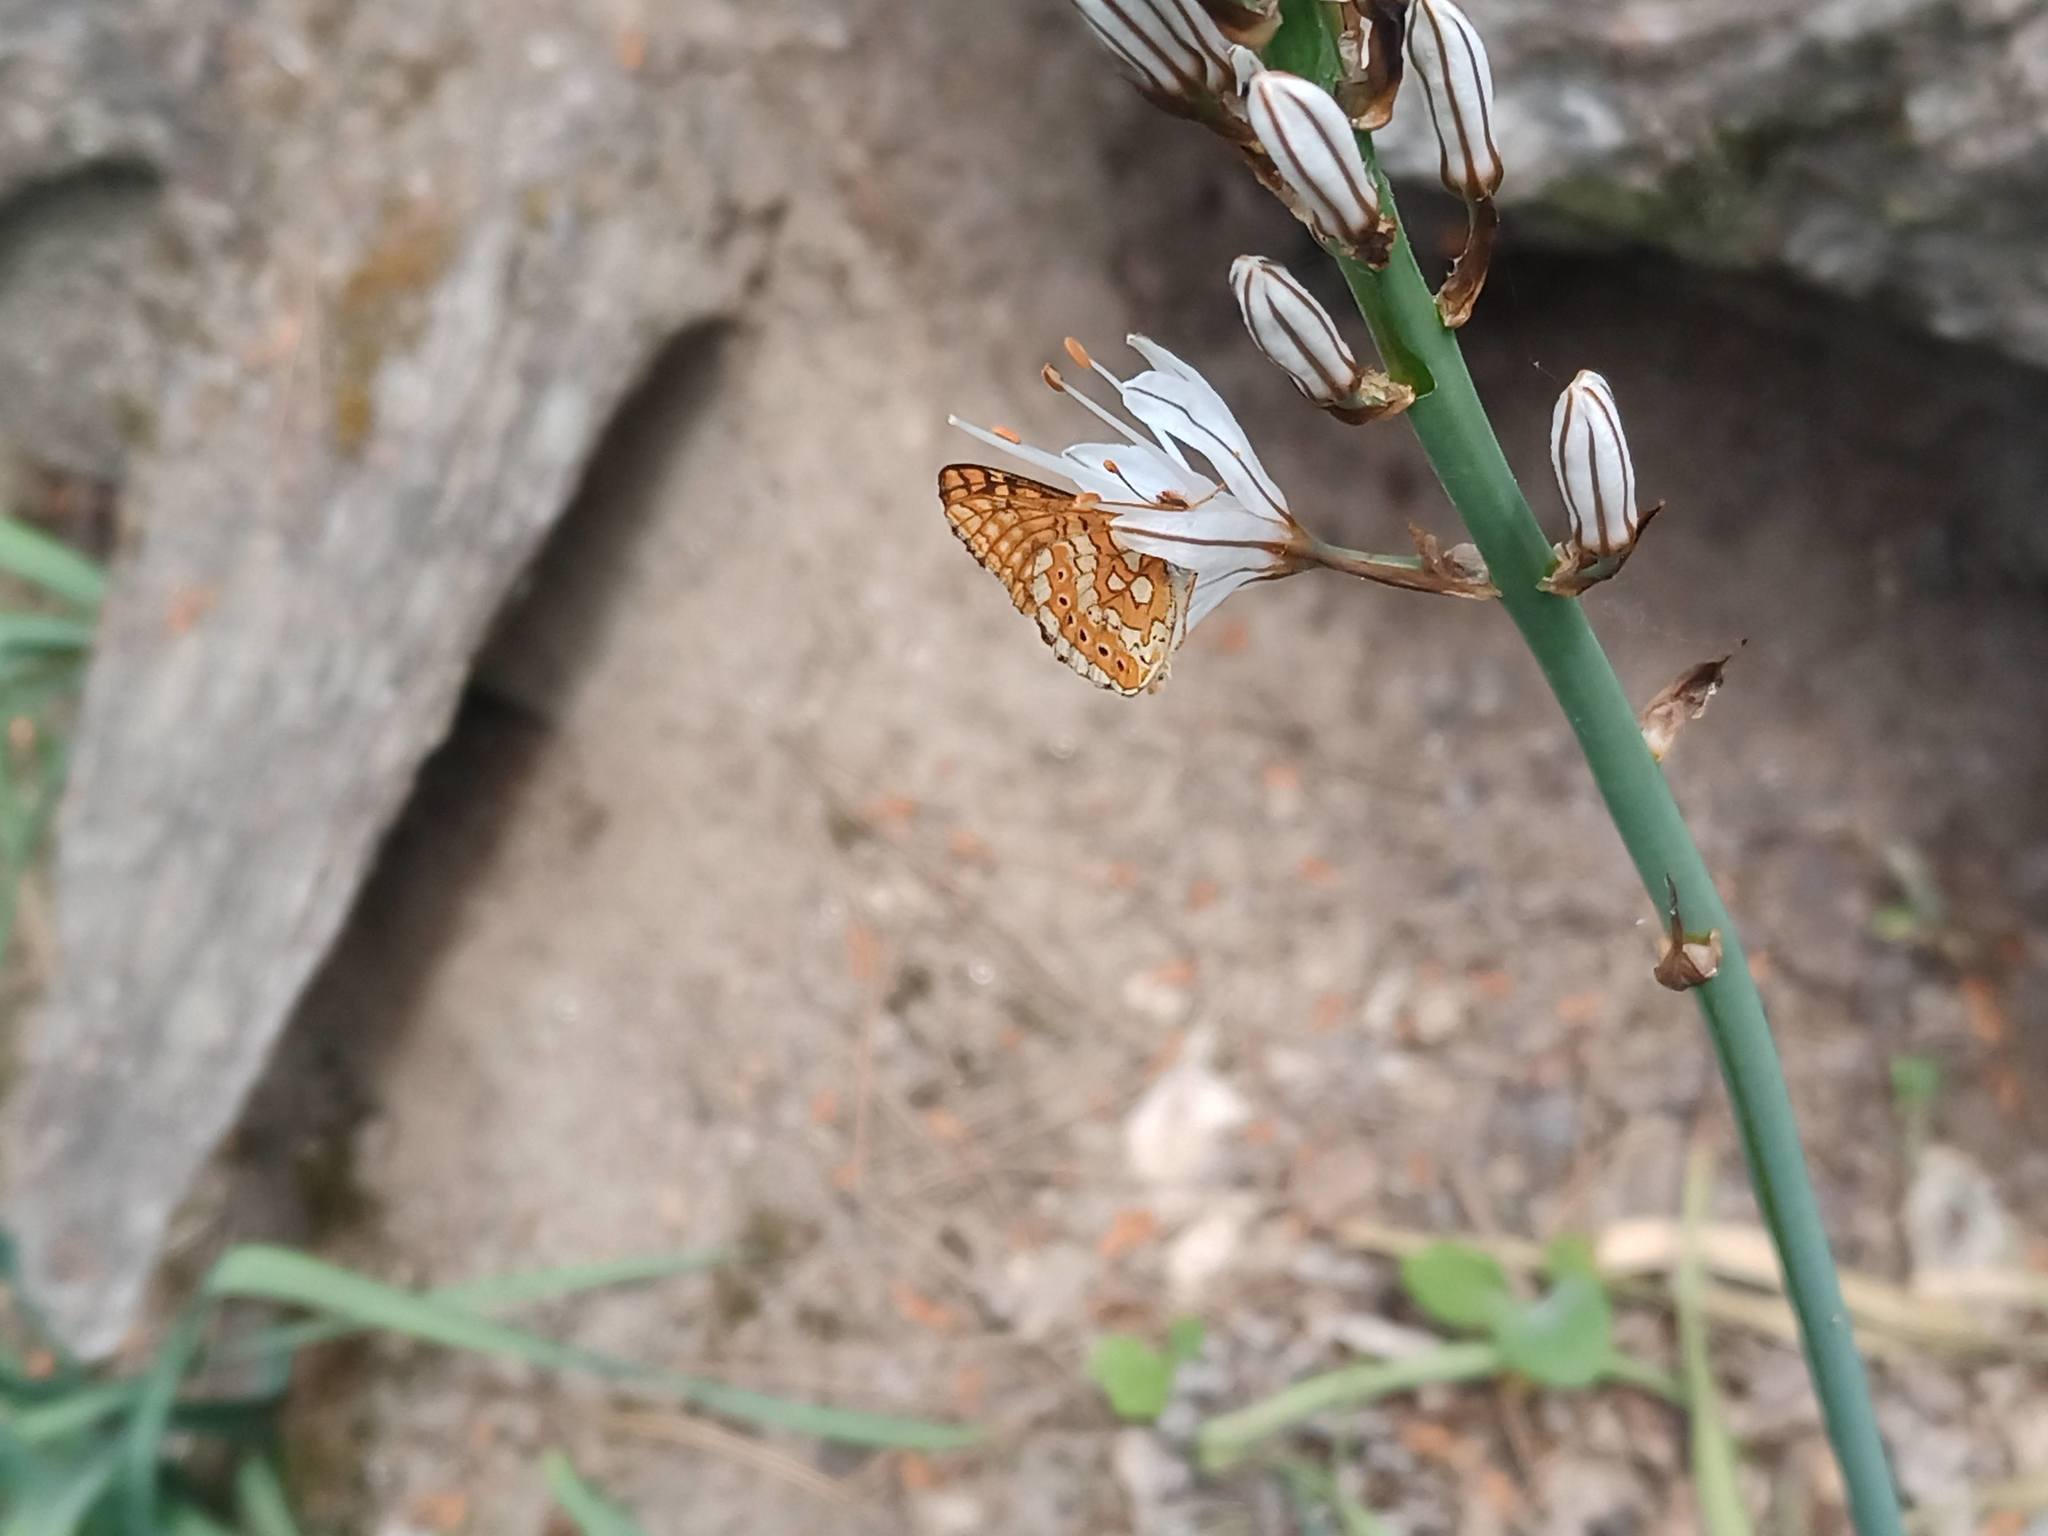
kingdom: Animalia
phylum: Arthropoda
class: Insecta
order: Lepidoptera
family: Nymphalidae
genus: Euphydryas
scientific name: Euphydryas aurinia
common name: Marsh fritillary
